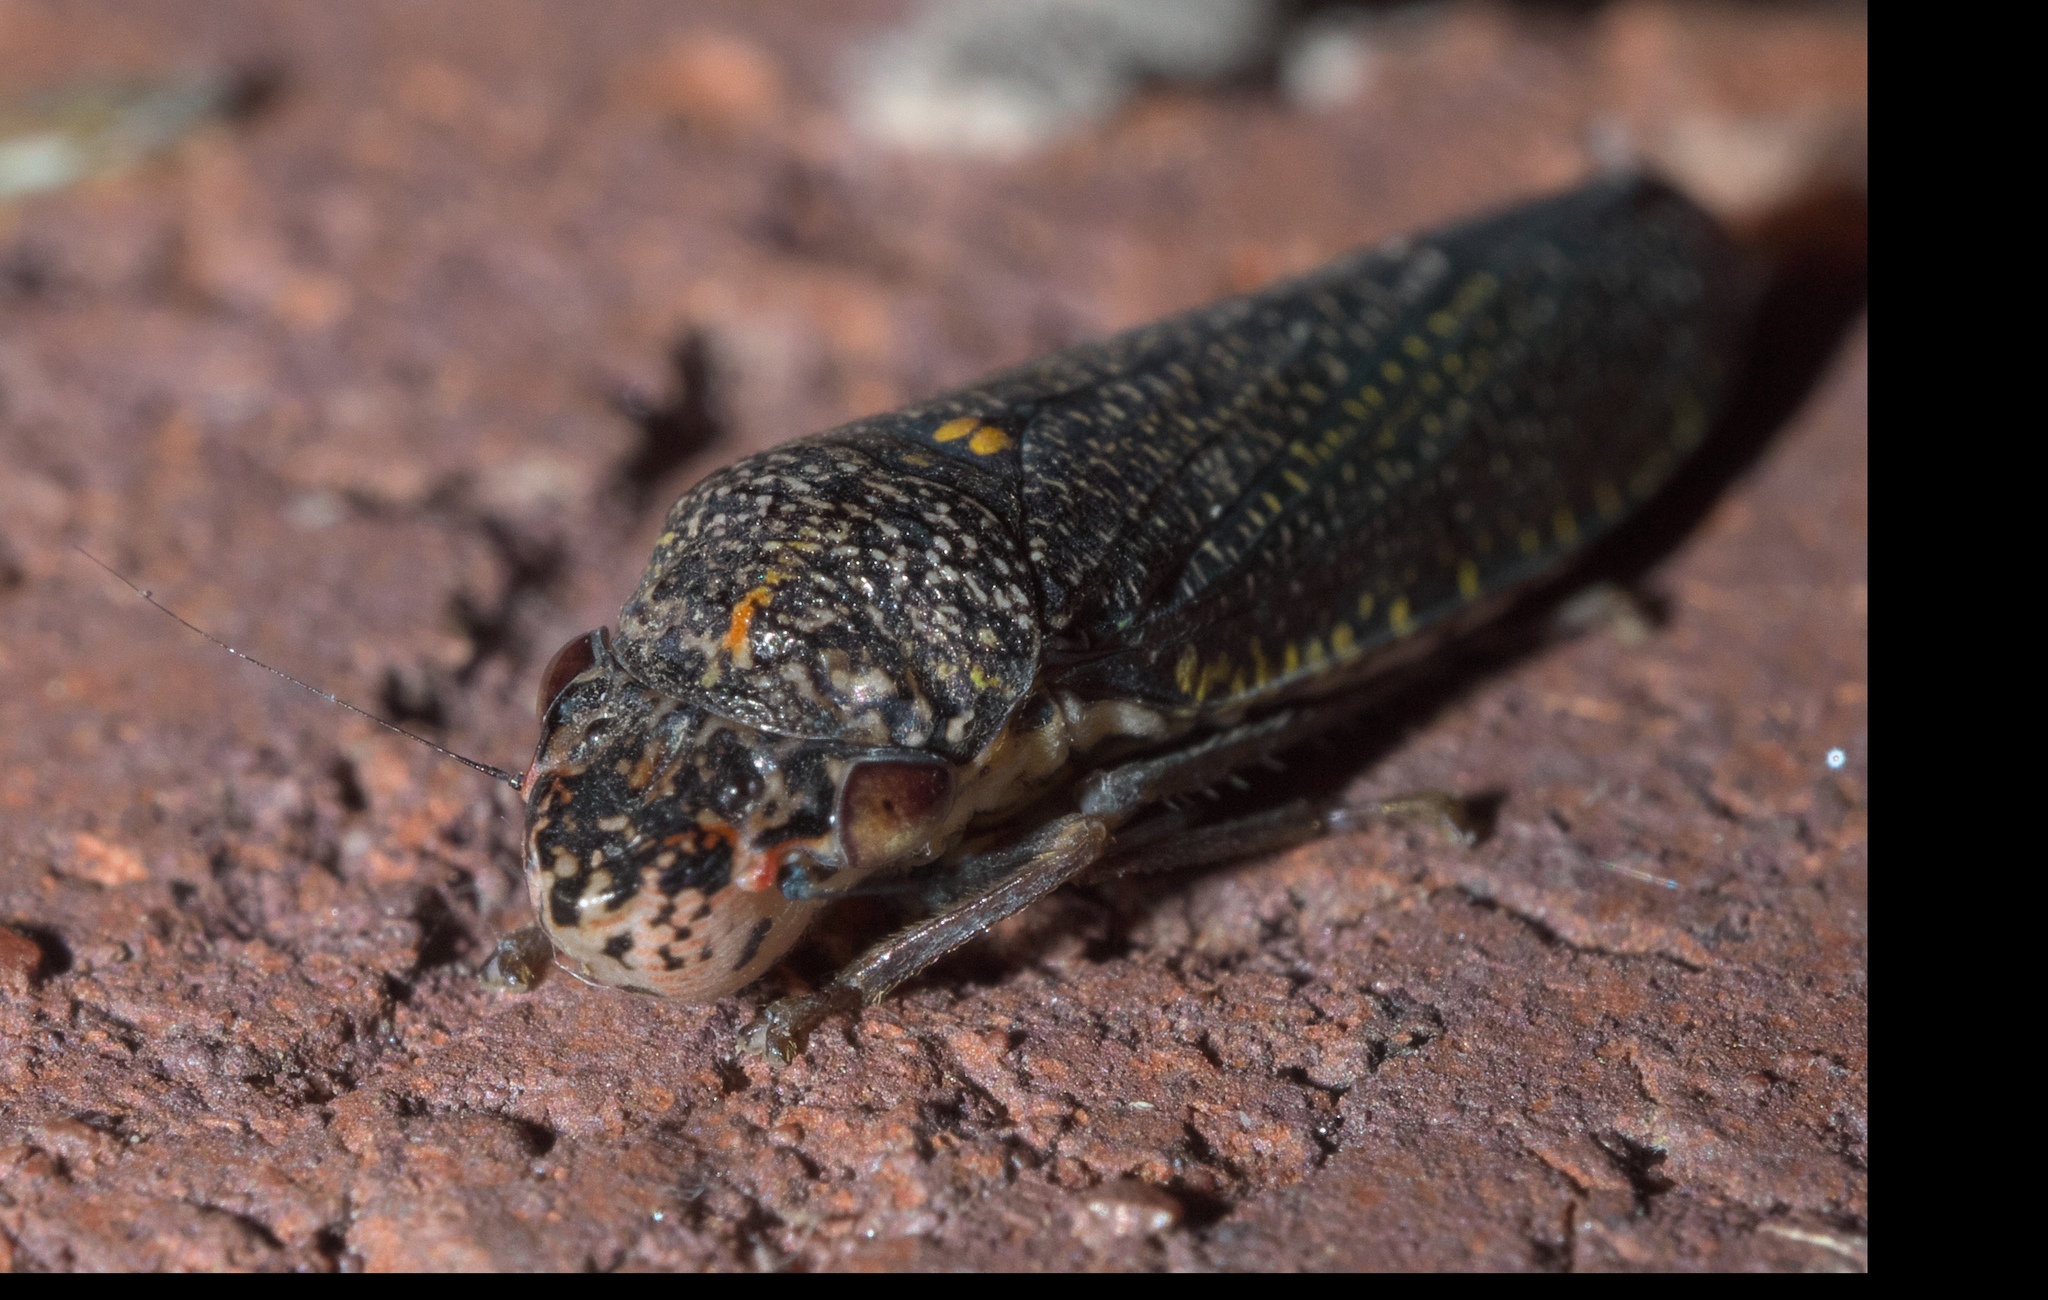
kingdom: Animalia
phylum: Arthropoda
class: Insecta
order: Hemiptera
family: Cicadellidae
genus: Paraulacizes
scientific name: Paraulacizes irrorata
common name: Speckled sharpshooter
